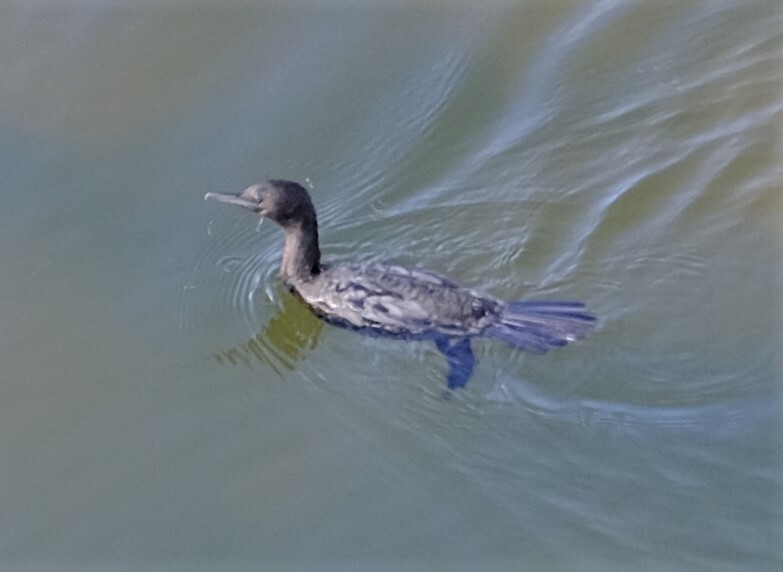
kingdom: Animalia
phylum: Chordata
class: Aves
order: Suliformes
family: Phalacrocoracidae
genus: Phalacrocorax
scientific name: Phalacrocorax sulcirostris
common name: Little black cormorant
